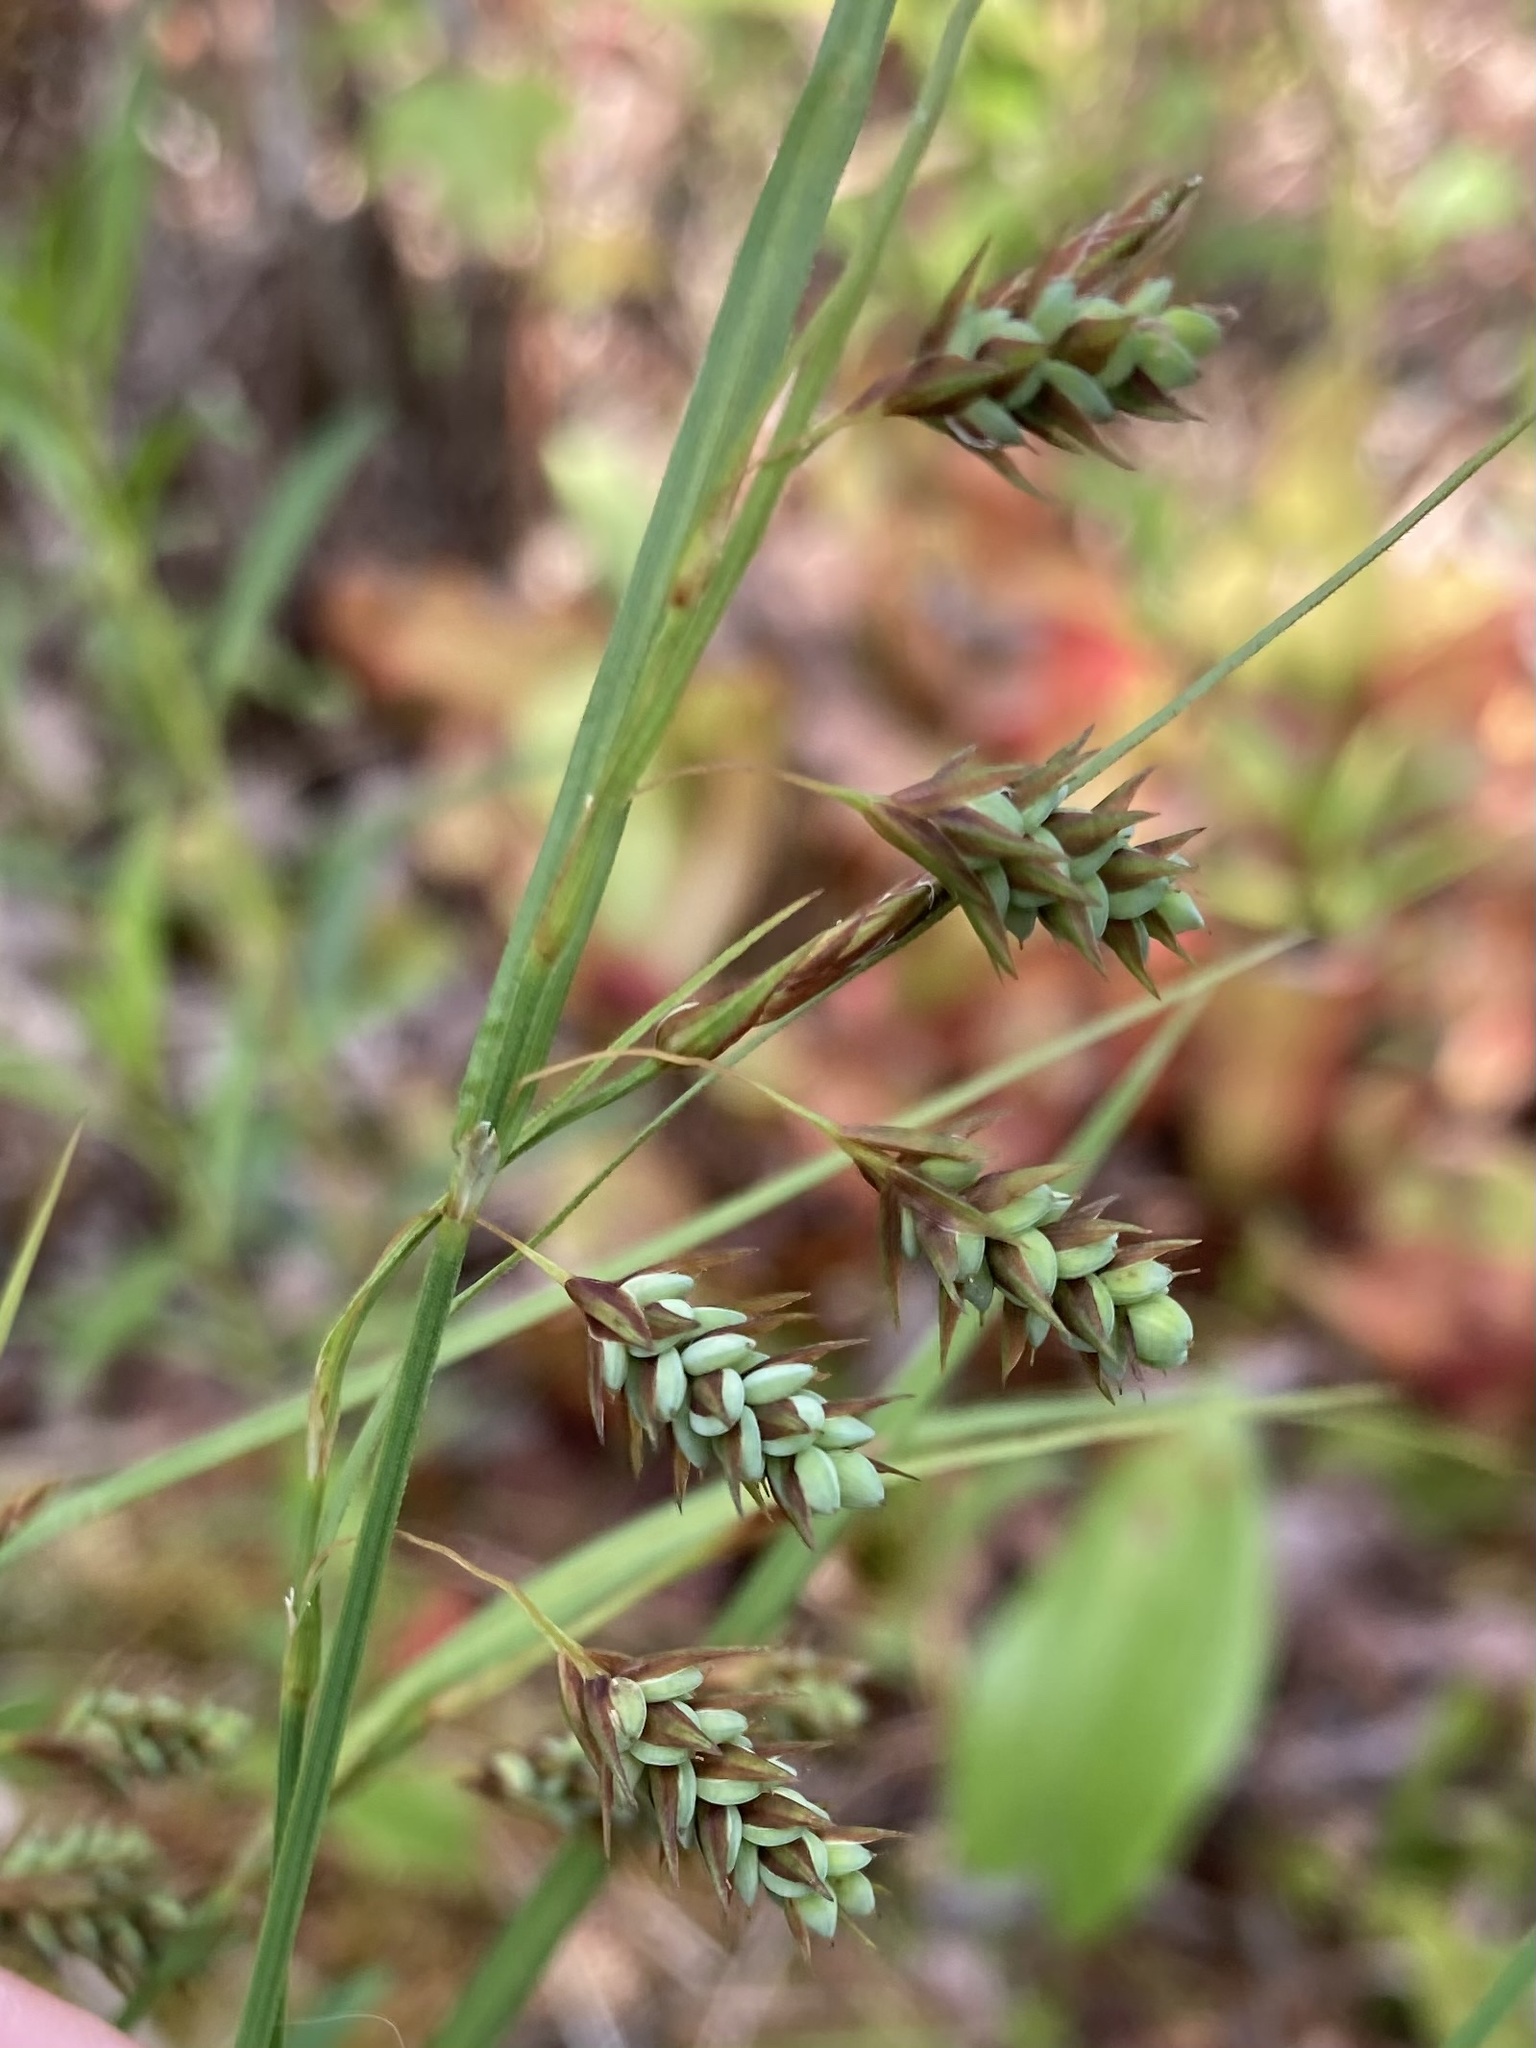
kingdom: Plantae
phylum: Tracheophyta
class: Liliopsida
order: Poales
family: Cyperaceae
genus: Carex
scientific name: Carex magellanica
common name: Bog sedge
